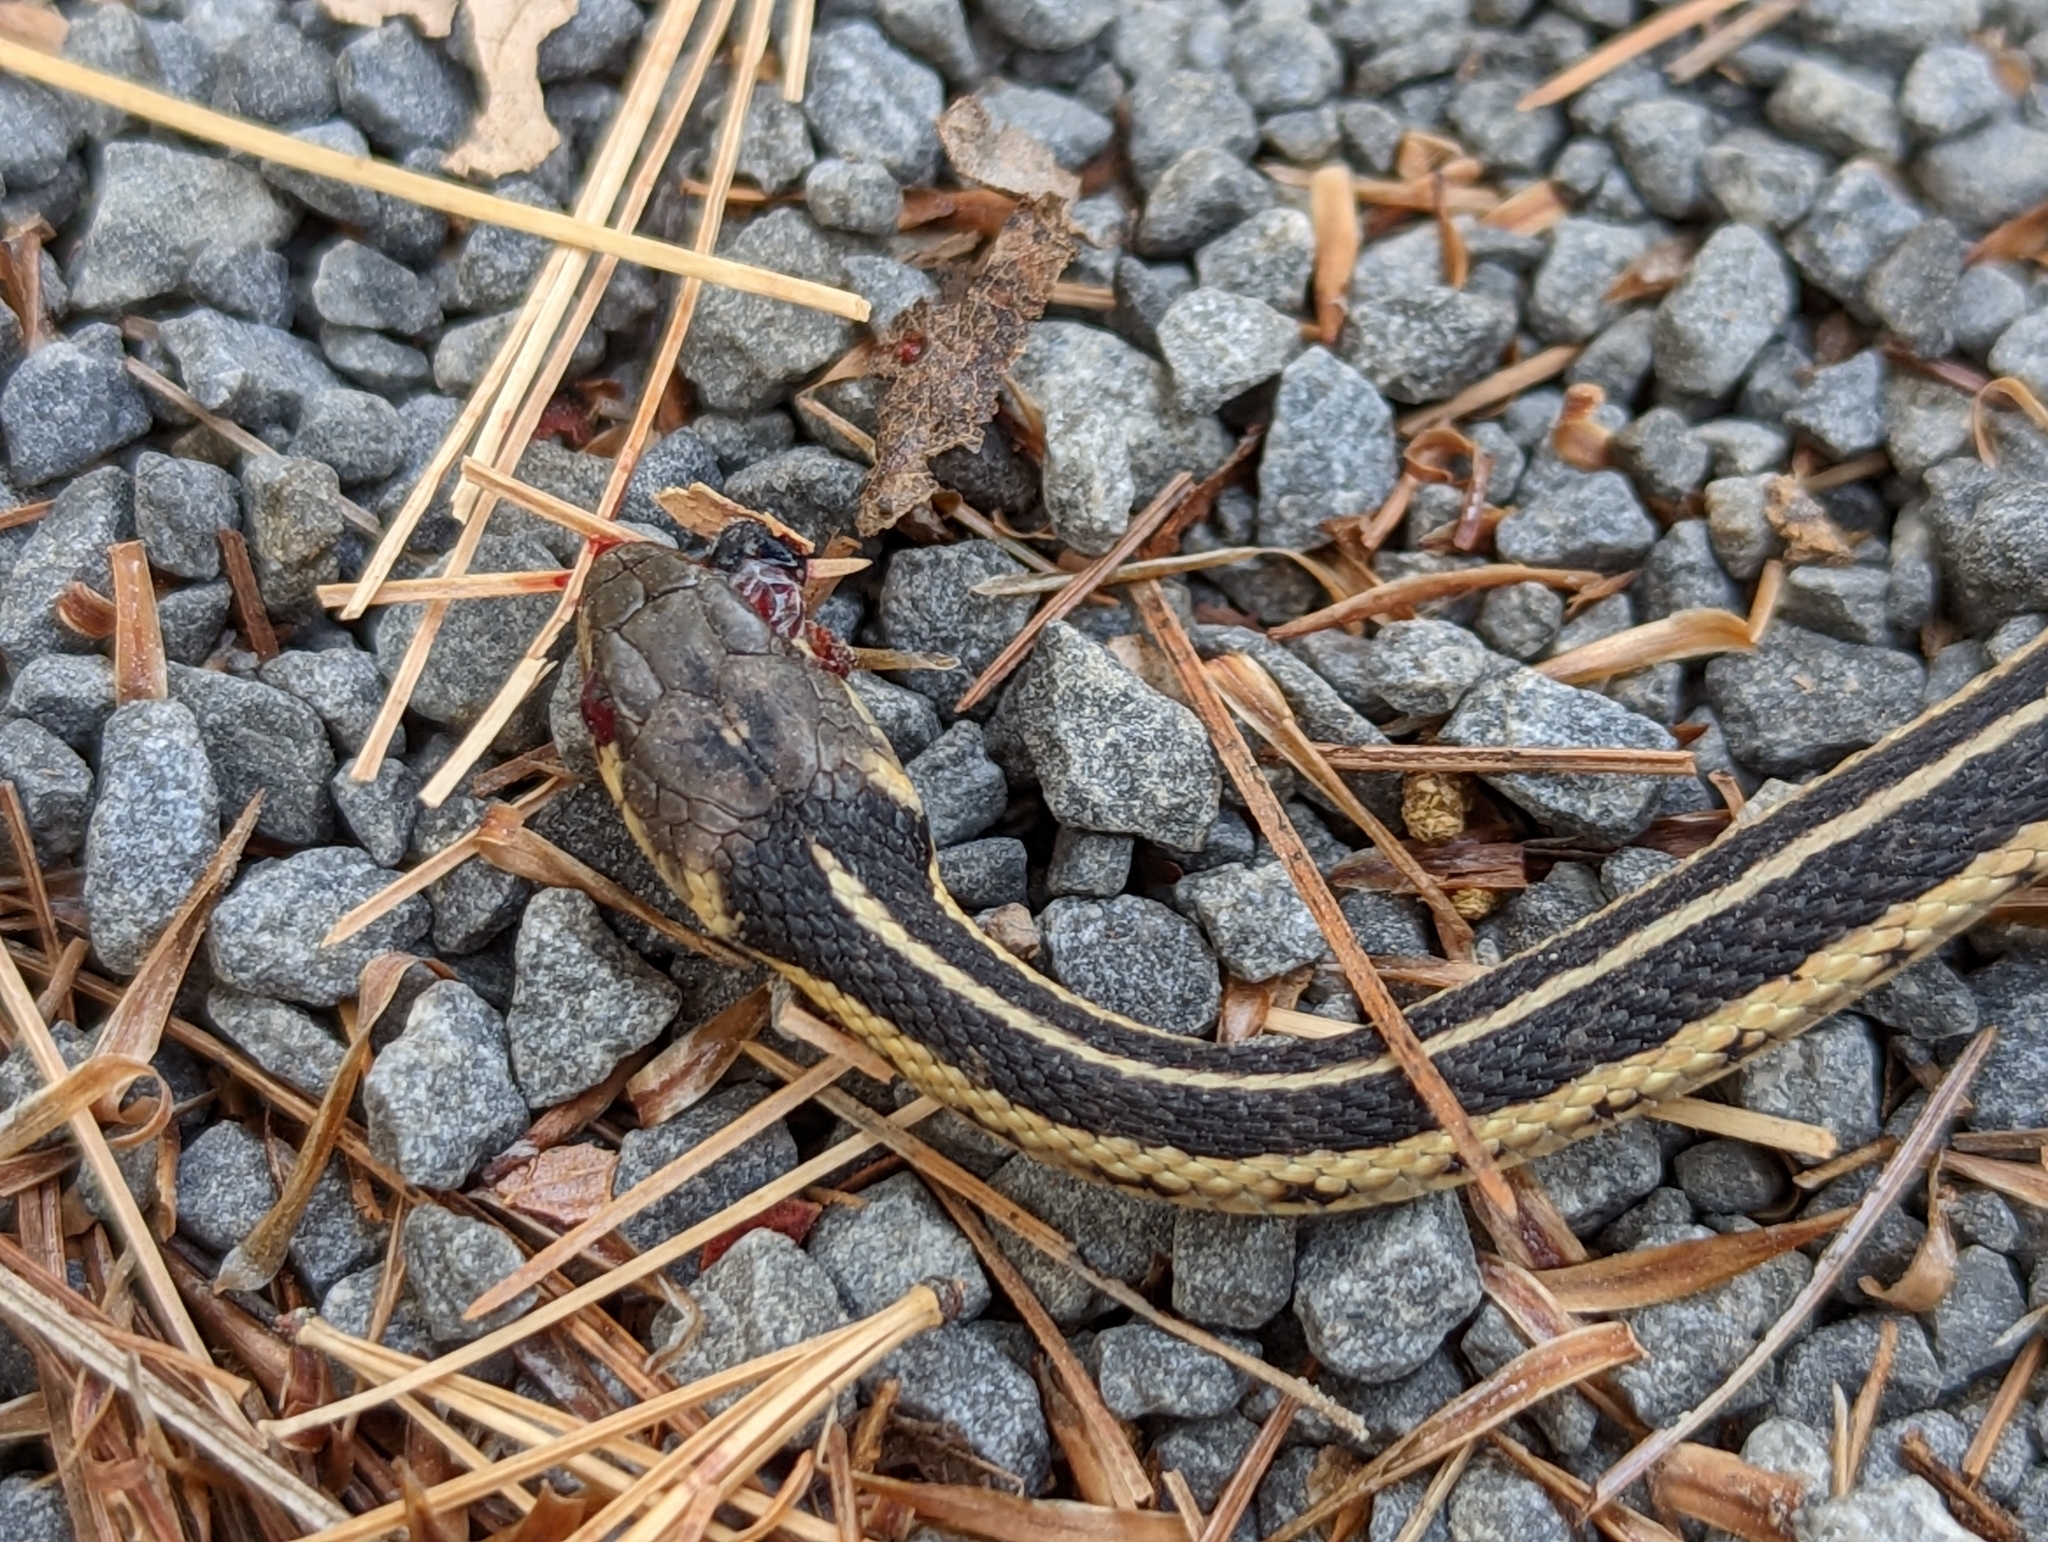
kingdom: Animalia
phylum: Chordata
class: Squamata
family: Colubridae
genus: Thamnophis
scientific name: Thamnophis sirtalis
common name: Common garter snake
